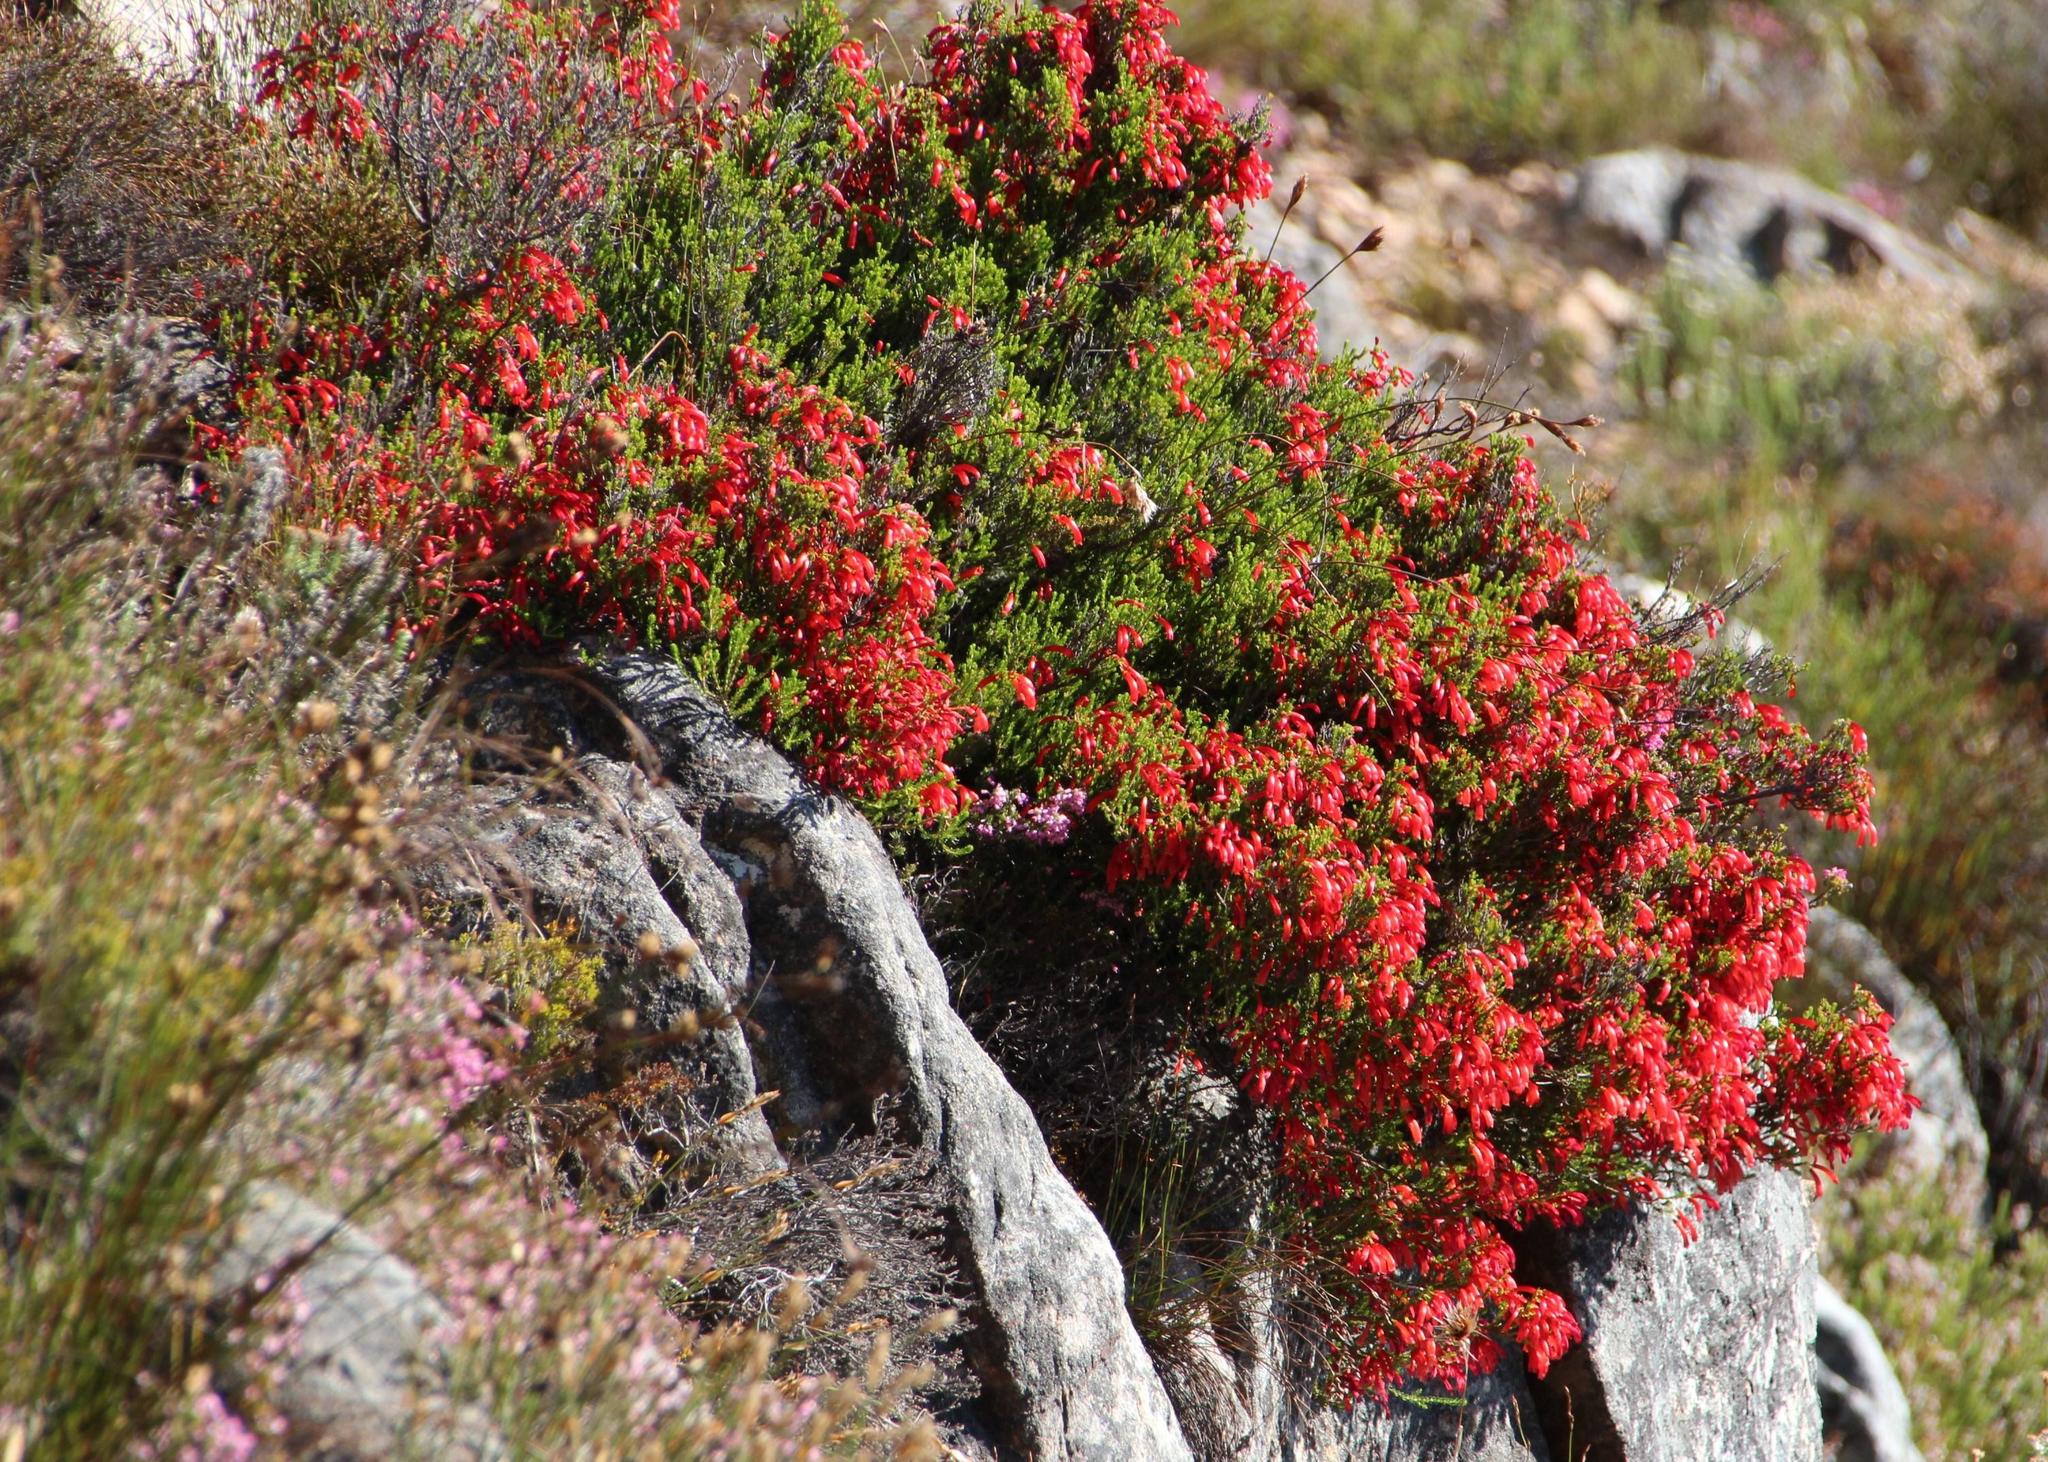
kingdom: Plantae
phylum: Tracheophyta
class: Magnoliopsida
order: Ericales
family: Ericaceae
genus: Erica
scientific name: Erica haematosiphon
